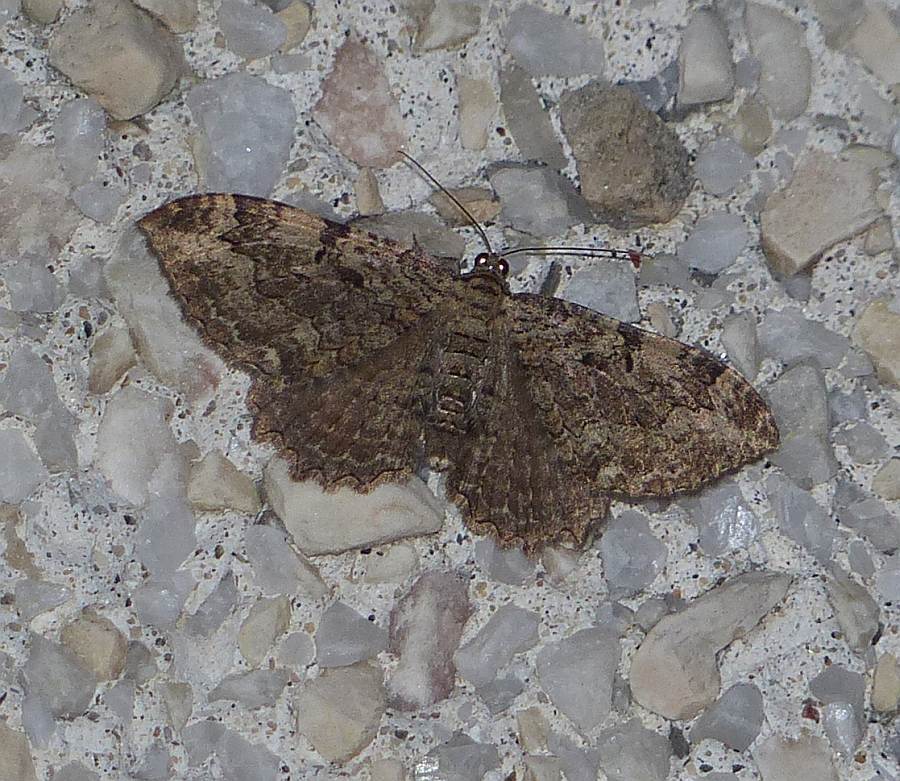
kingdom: Animalia
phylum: Arthropoda
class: Insecta
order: Lepidoptera
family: Geometridae
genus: Rheumaptera
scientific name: Rheumaptera
